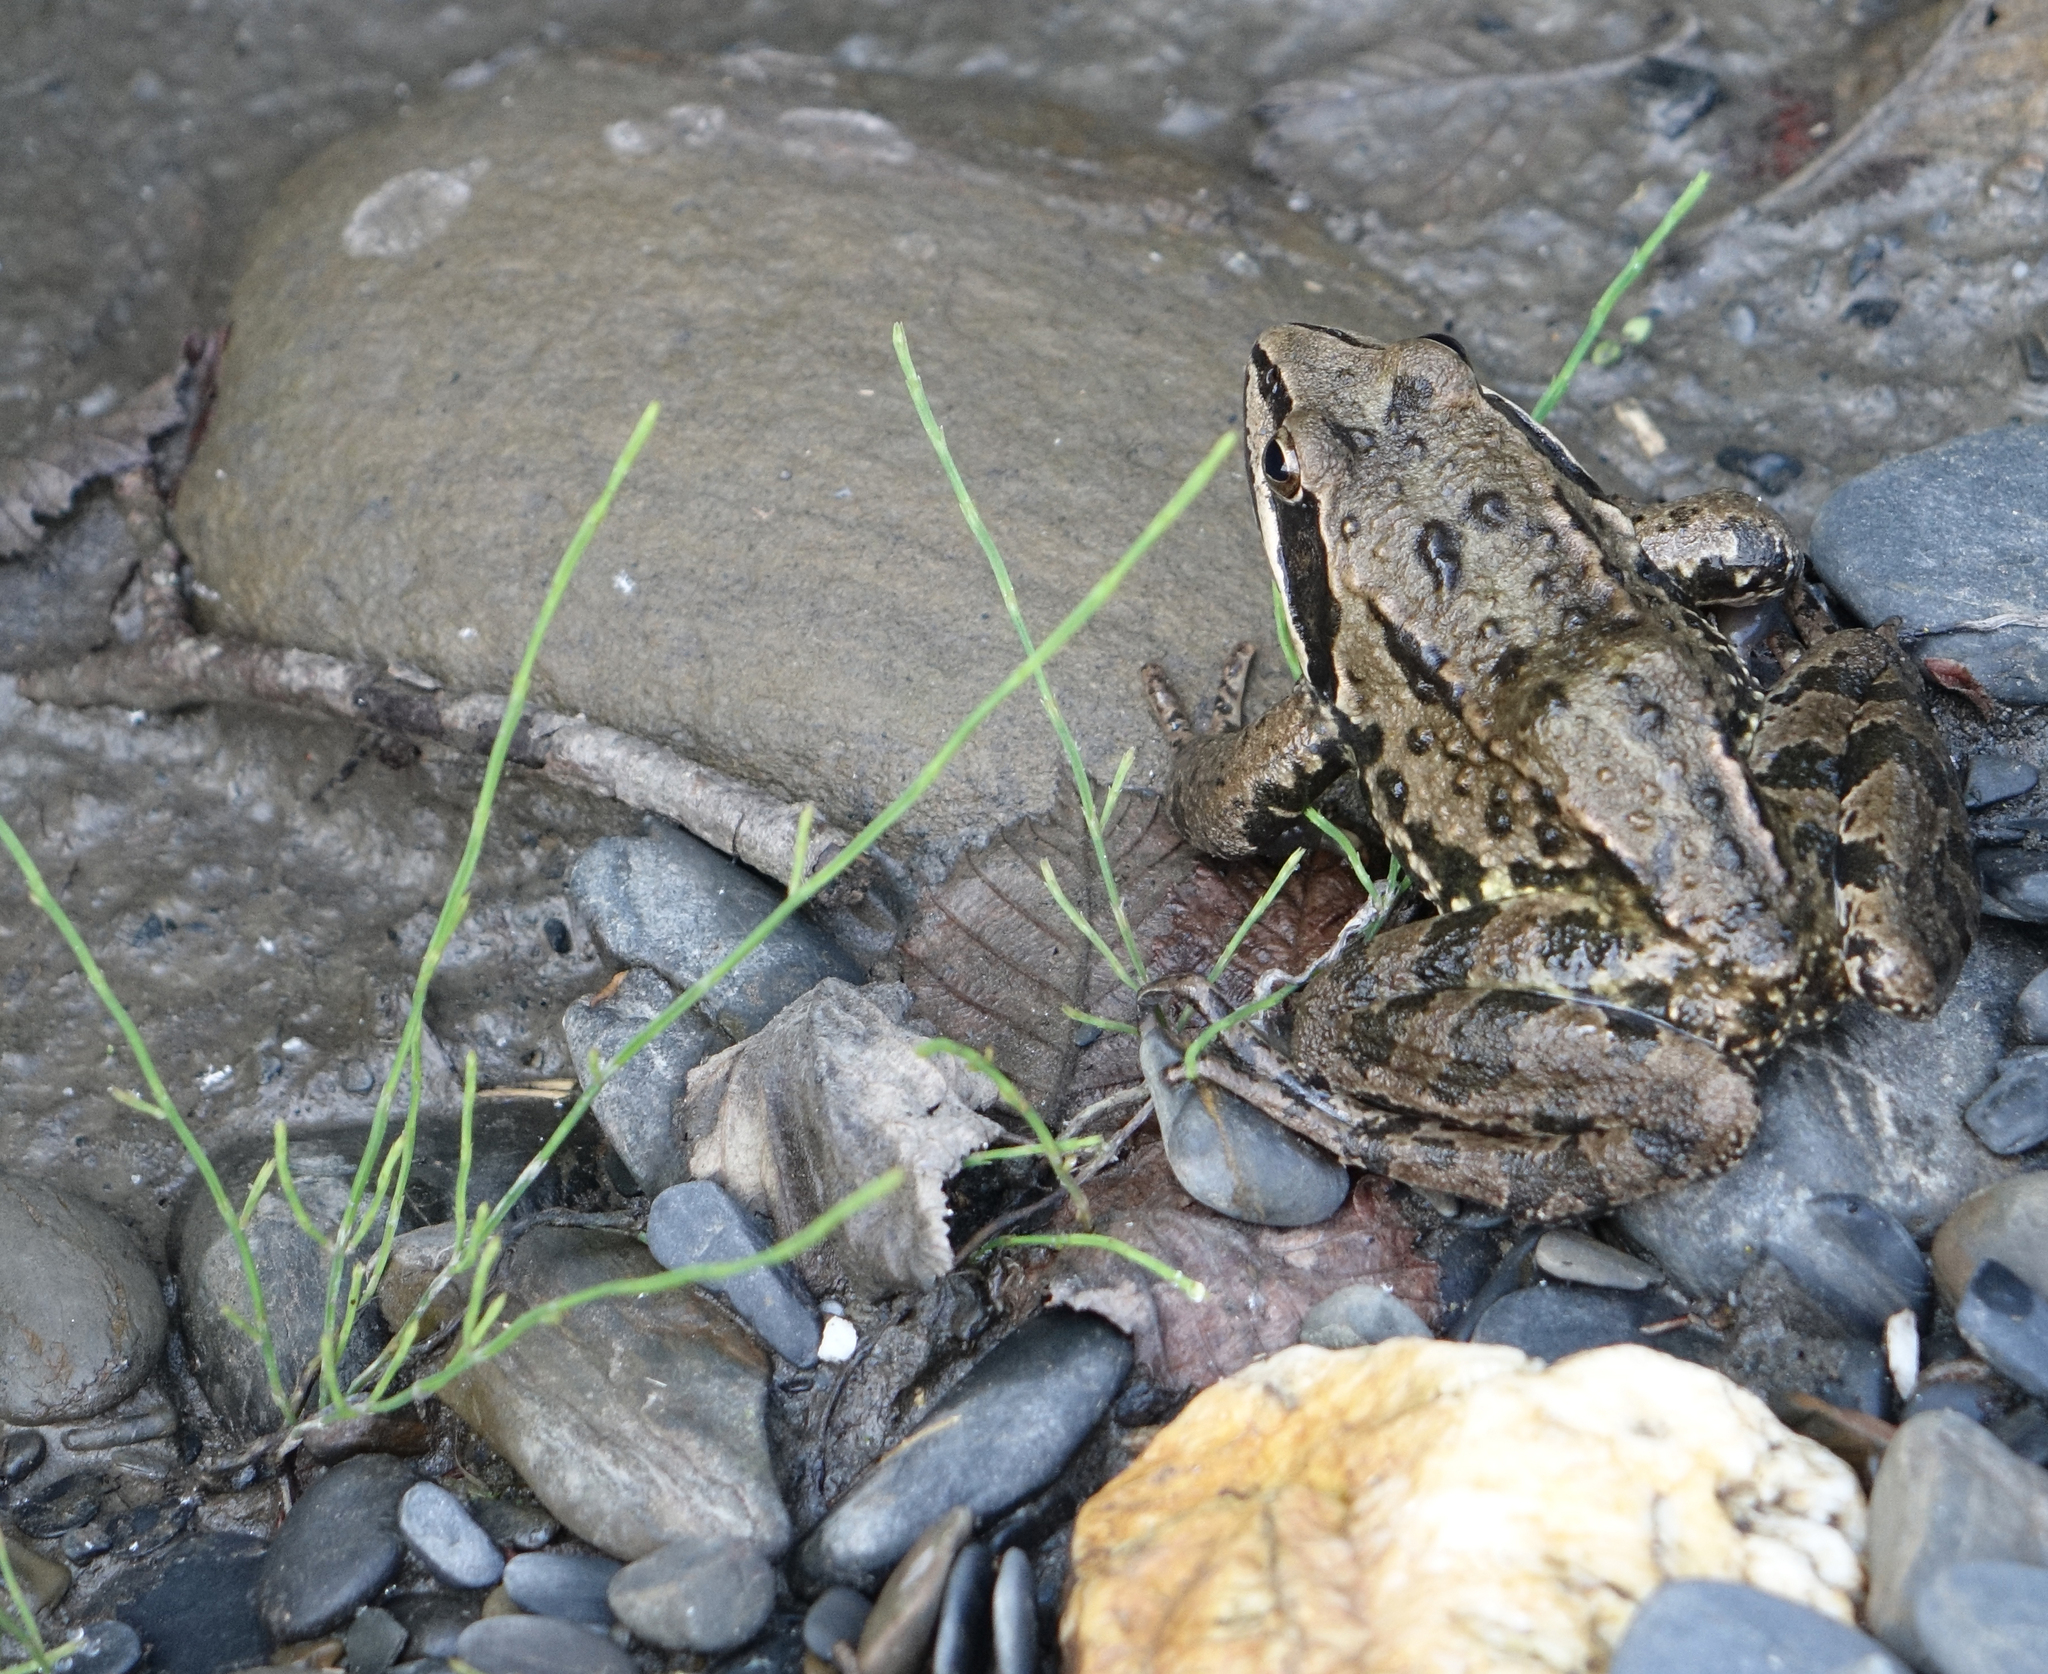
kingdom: Plantae
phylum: Tracheophyta
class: Polypodiopsida
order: Equisetales
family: Equisetaceae
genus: Equisetum
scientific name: Equisetum arvense
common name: Field horsetail
